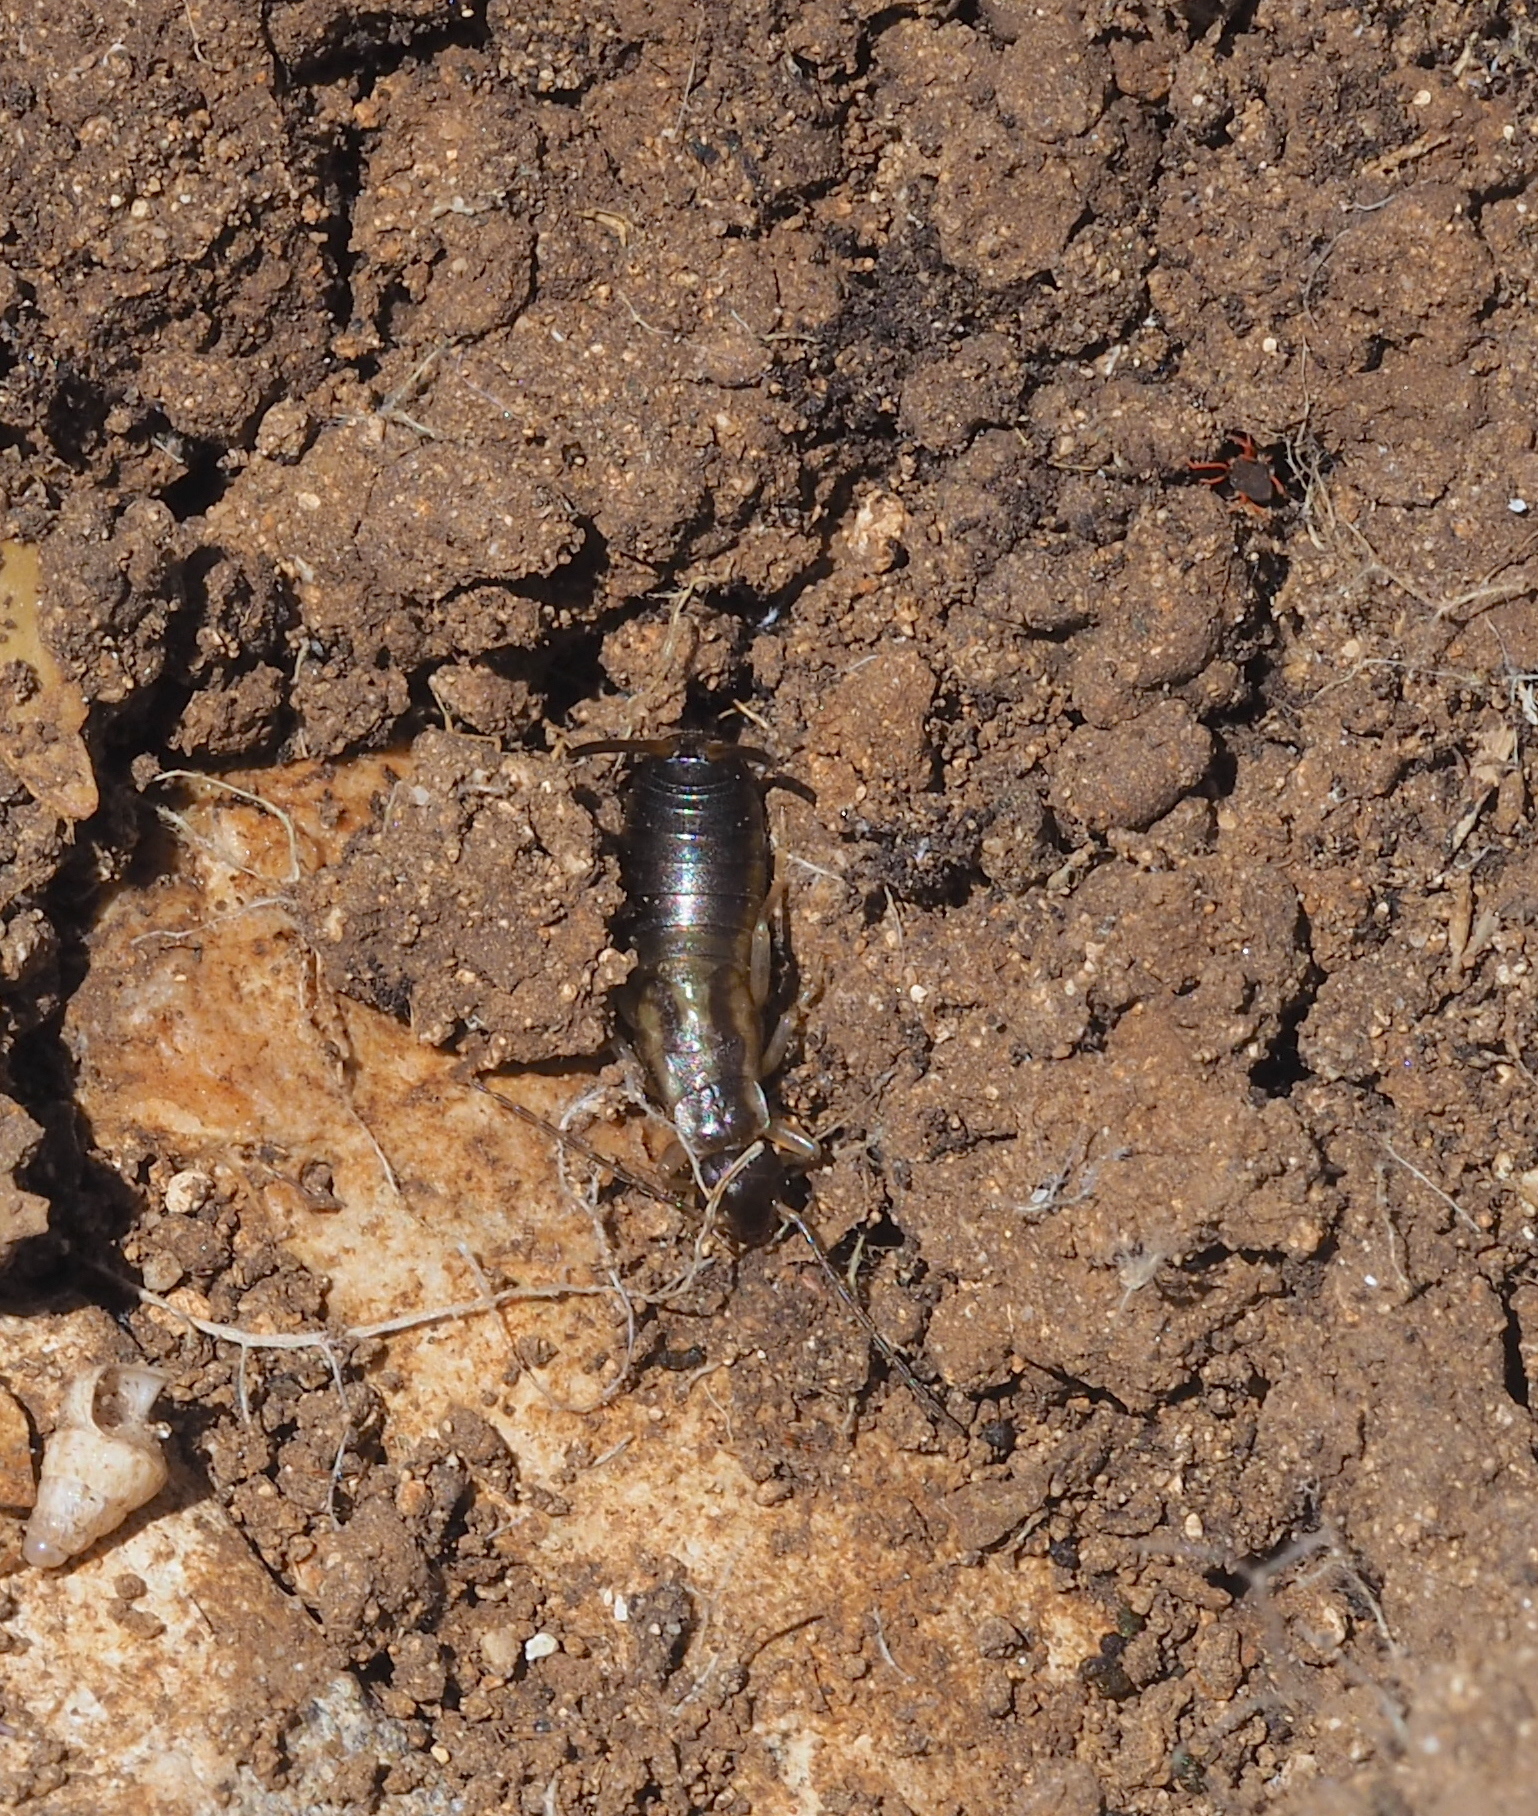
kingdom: Animalia
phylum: Arthropoda
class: Insecta
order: Dermaptera
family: Forficulidae
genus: Forficula
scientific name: Forficula
